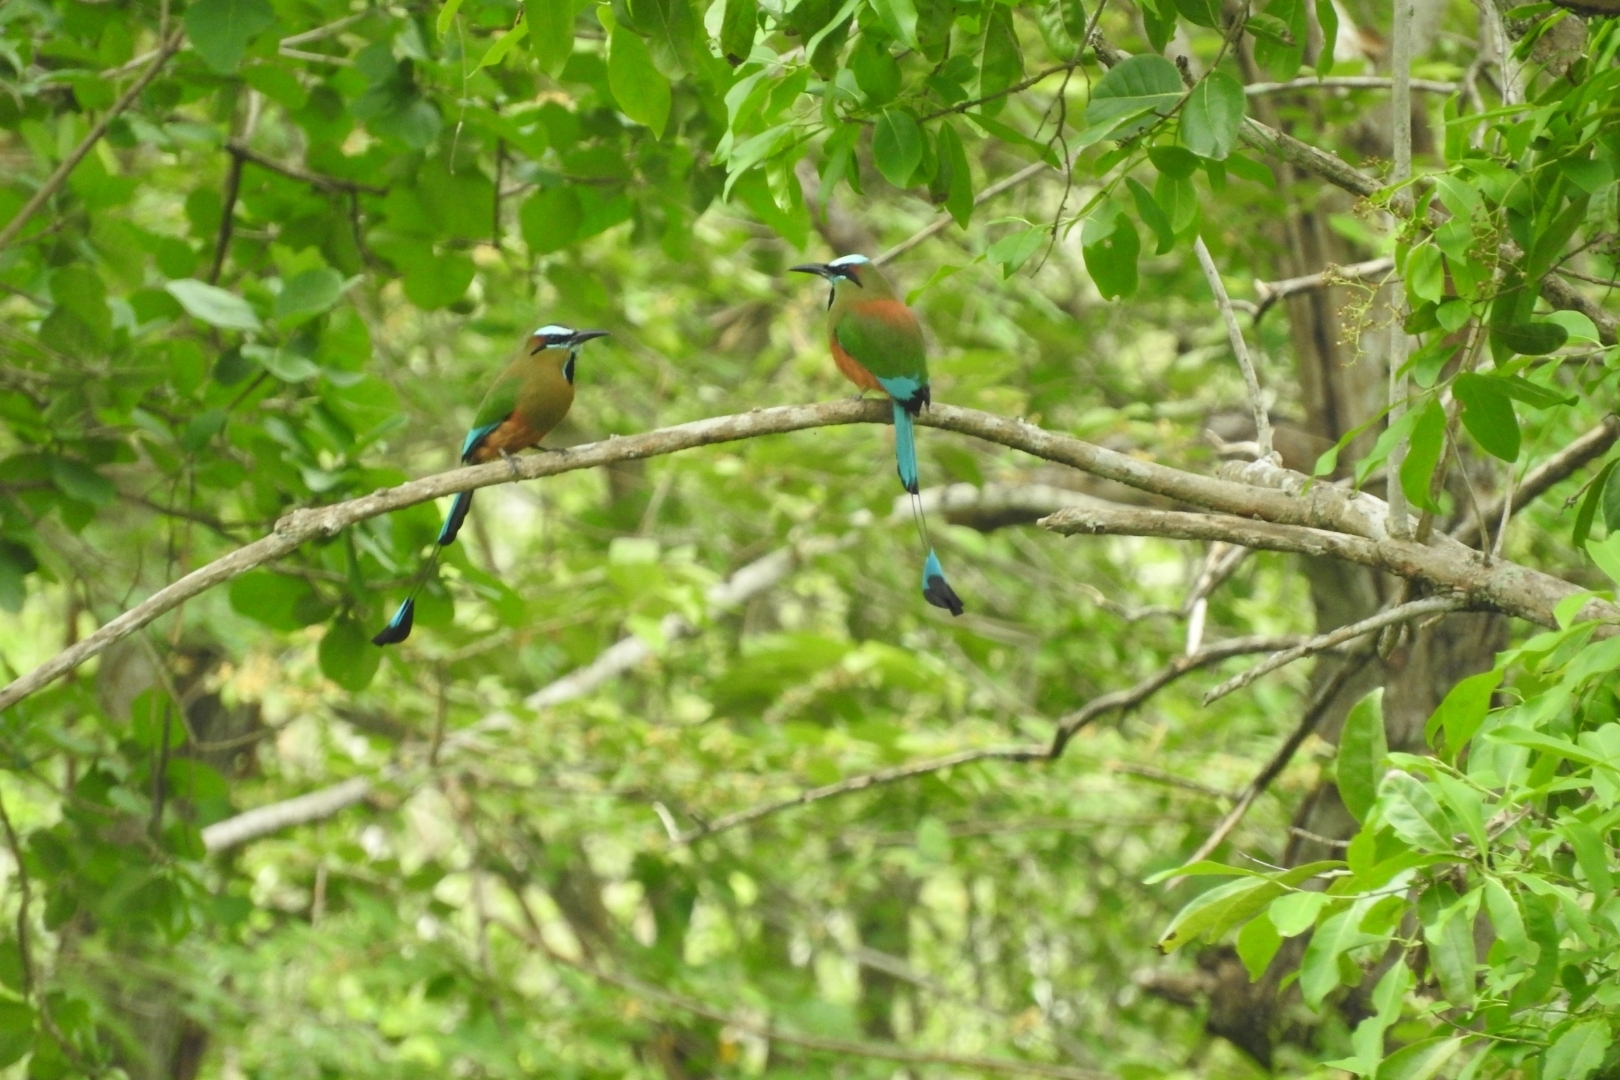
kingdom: Animalia
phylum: Chordata
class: Aves
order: Coraciiformes
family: Momotidae
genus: Eumomota
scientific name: Eumomota superciliosa
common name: Turquoise-browed motmot
